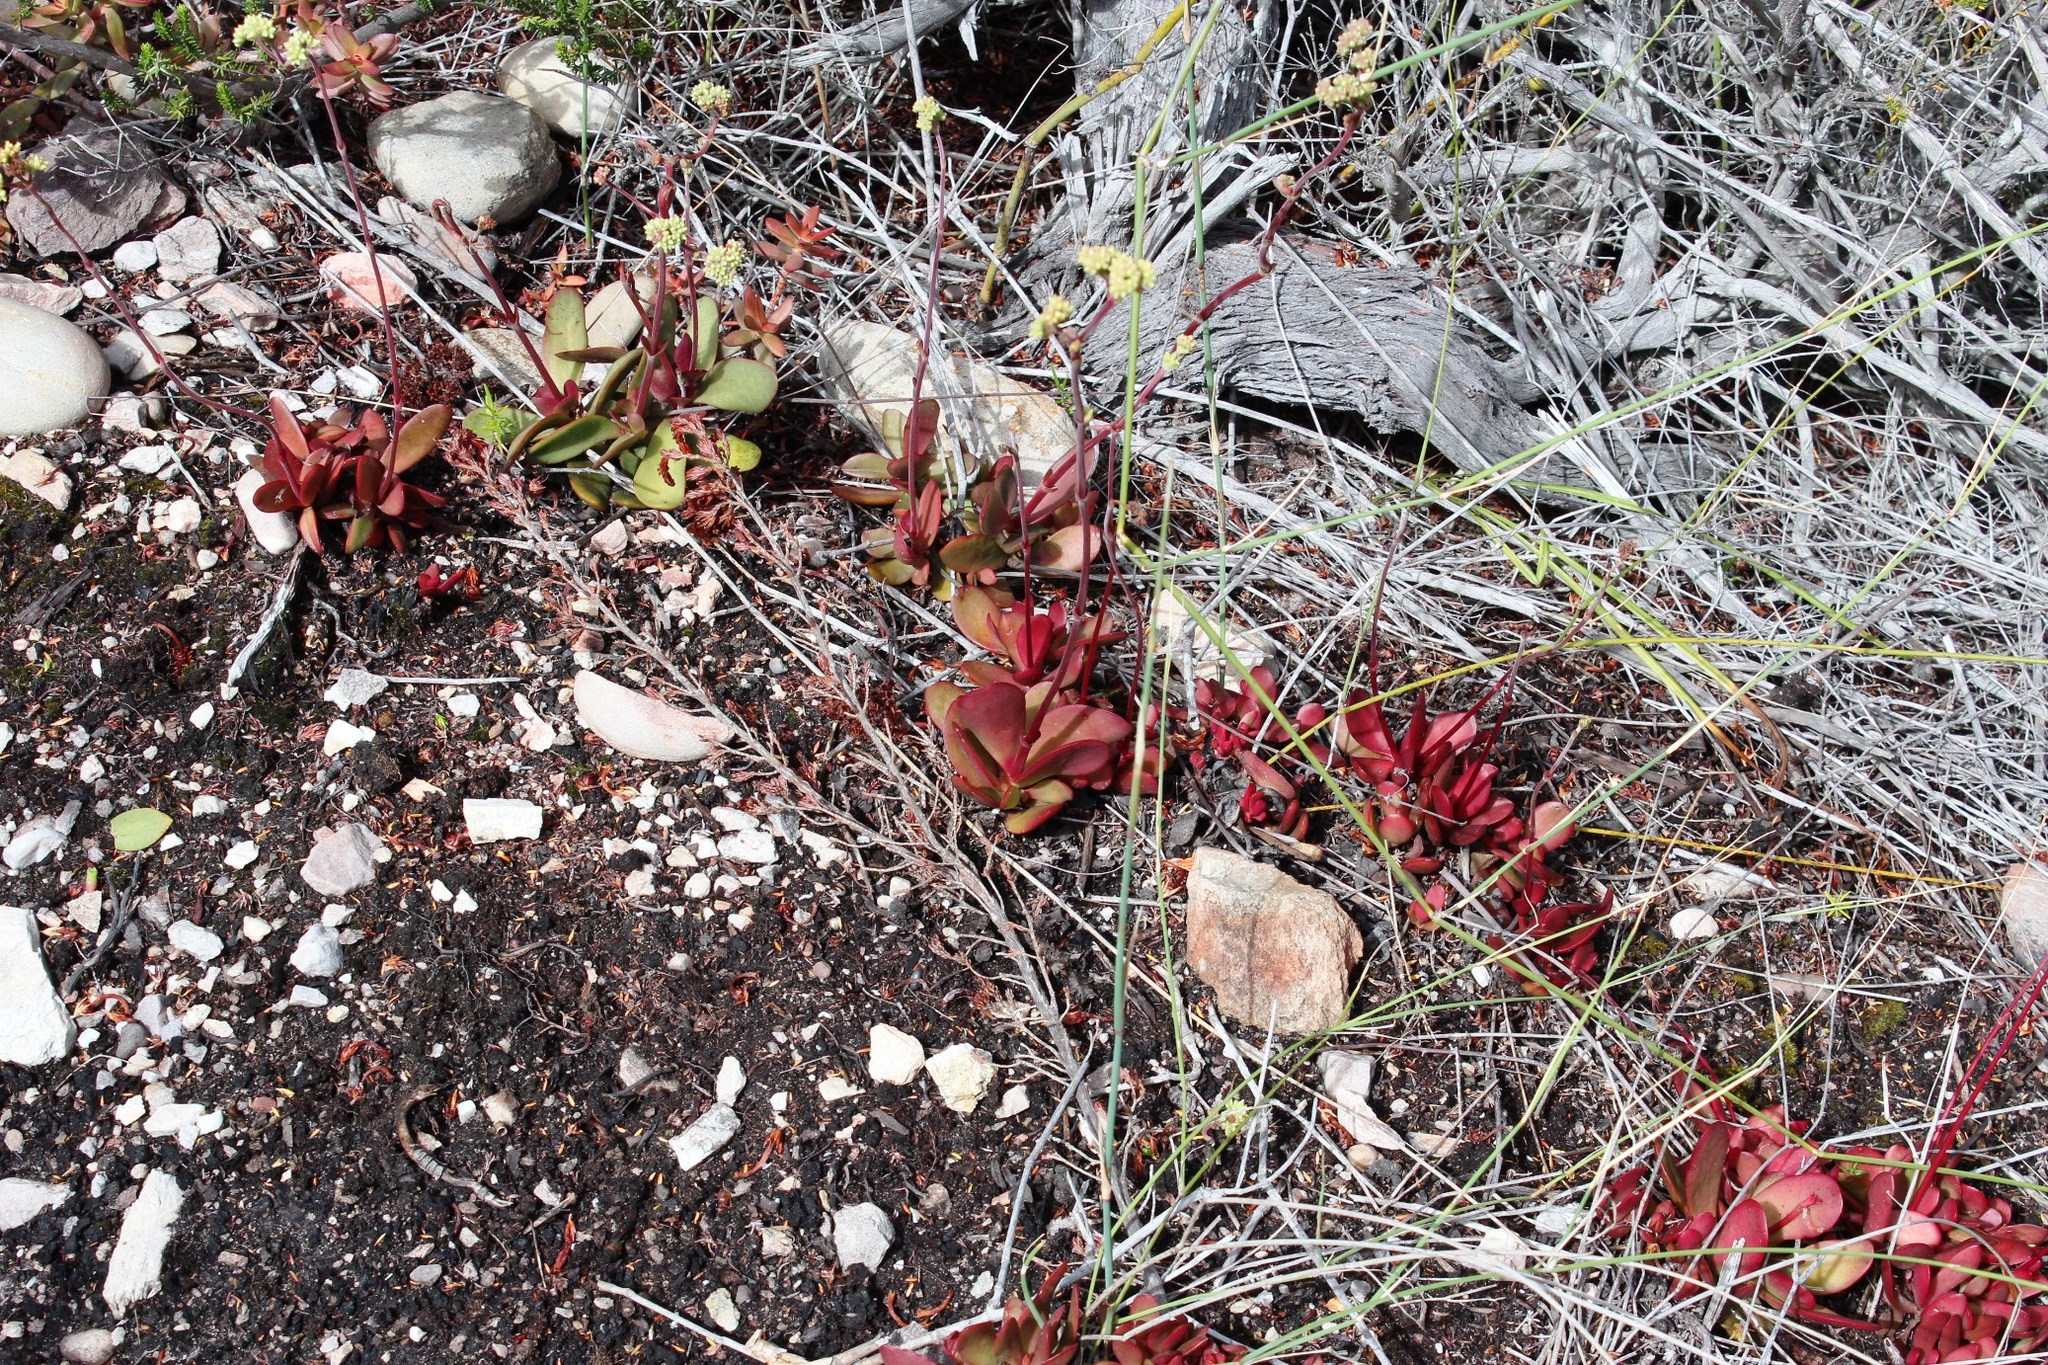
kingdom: Plantae
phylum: Tracheophyta
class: Magnoliopsida
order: Saxifragales
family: Crassulaceae
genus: Crassula
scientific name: Crassula atropurpurea
